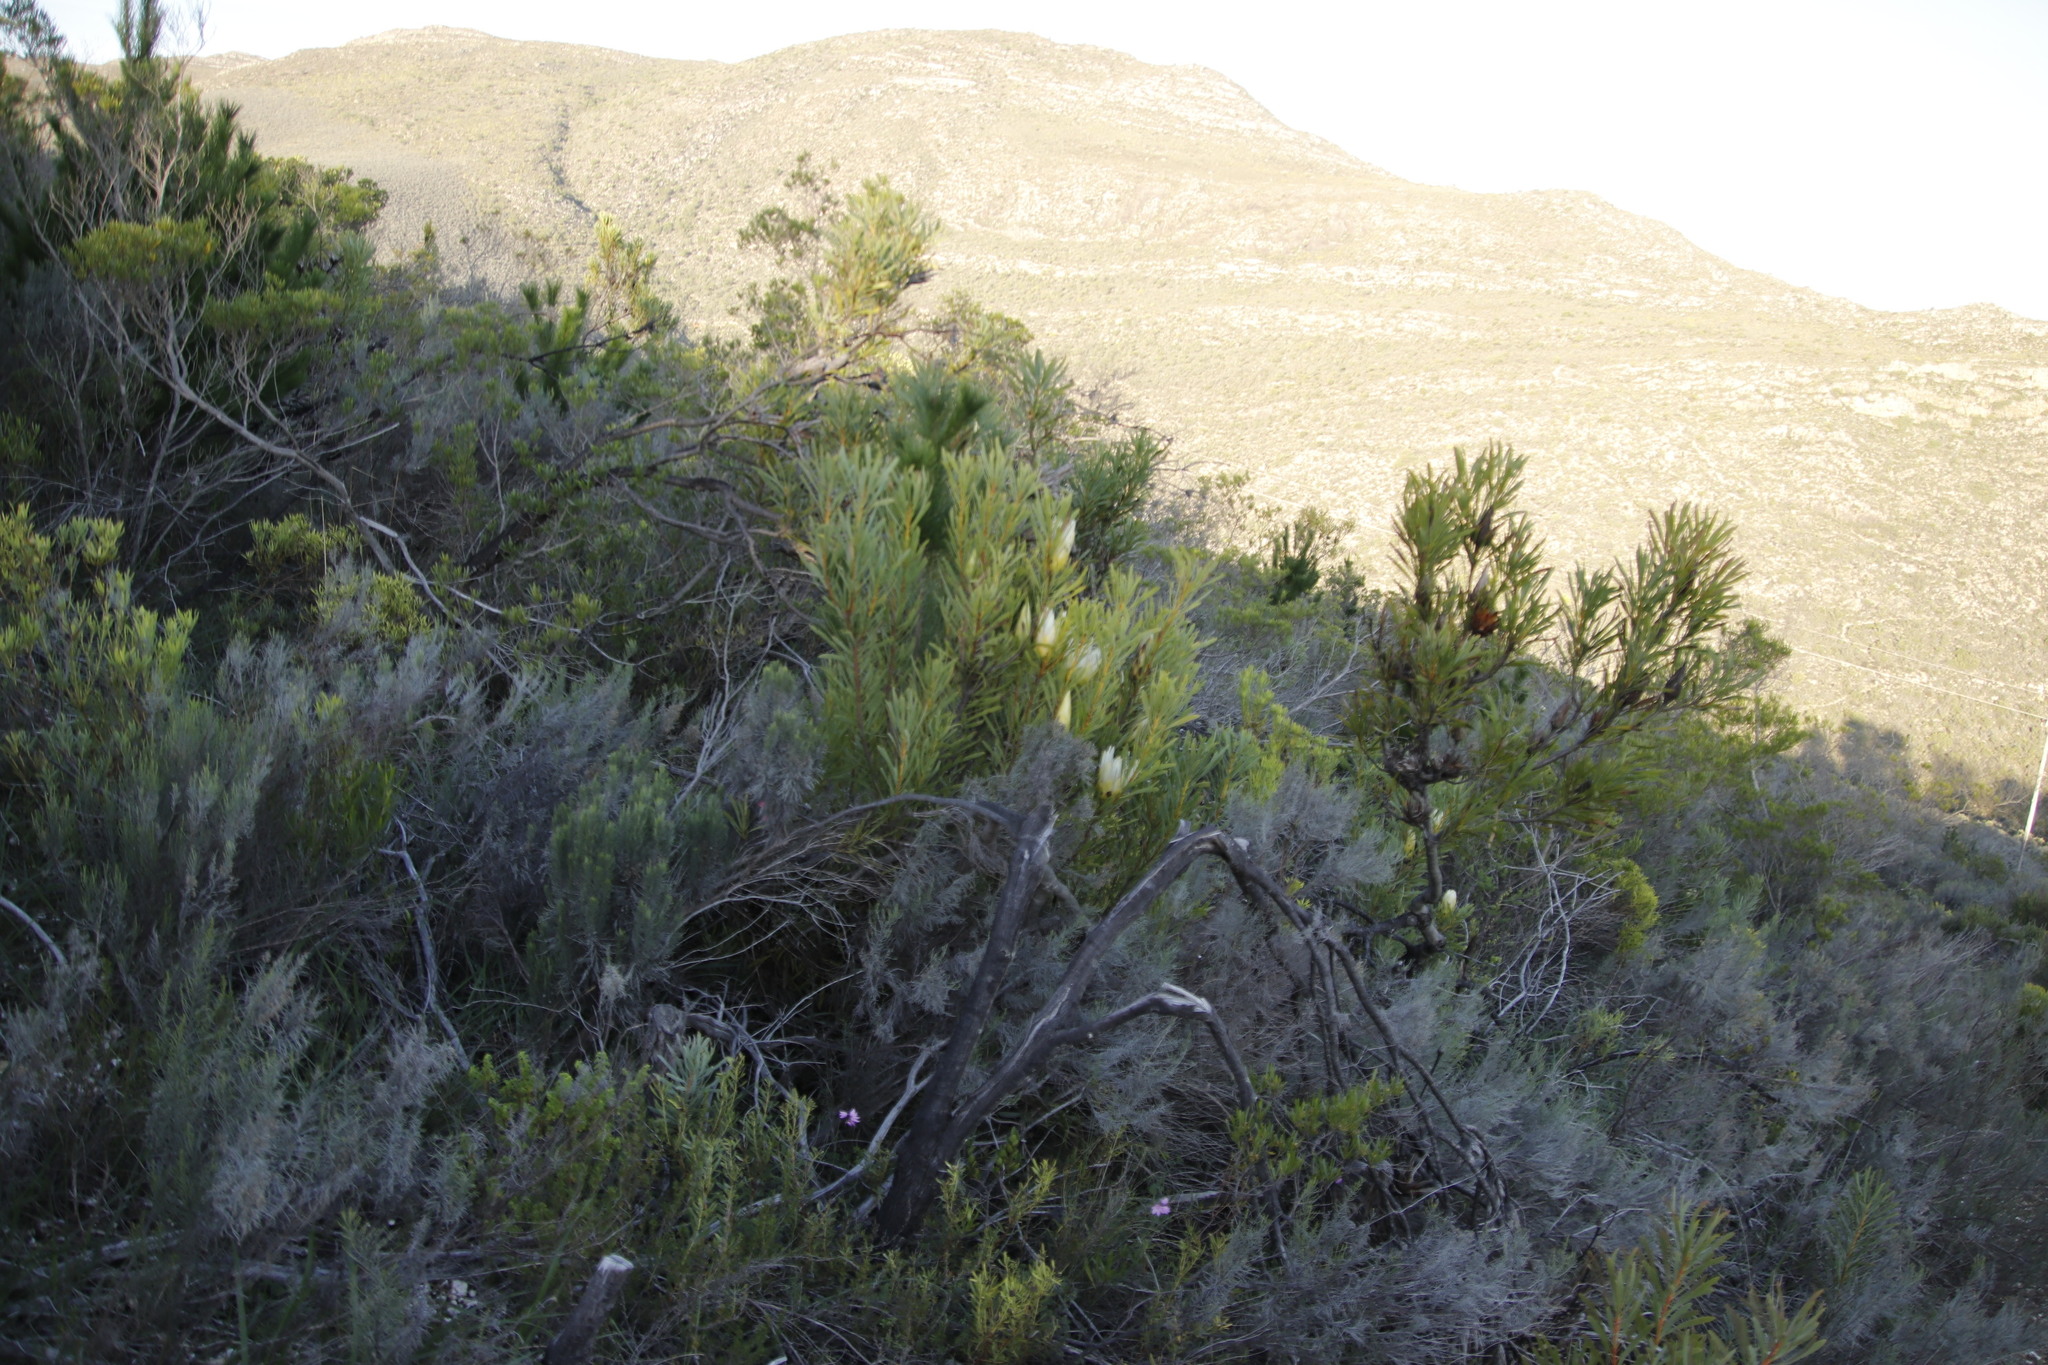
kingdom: Plantae
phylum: Tracheophyta
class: Magnoliopsida
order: Proteales
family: Proteaceae
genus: Protea
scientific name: Protea repens
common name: Sugarbush
